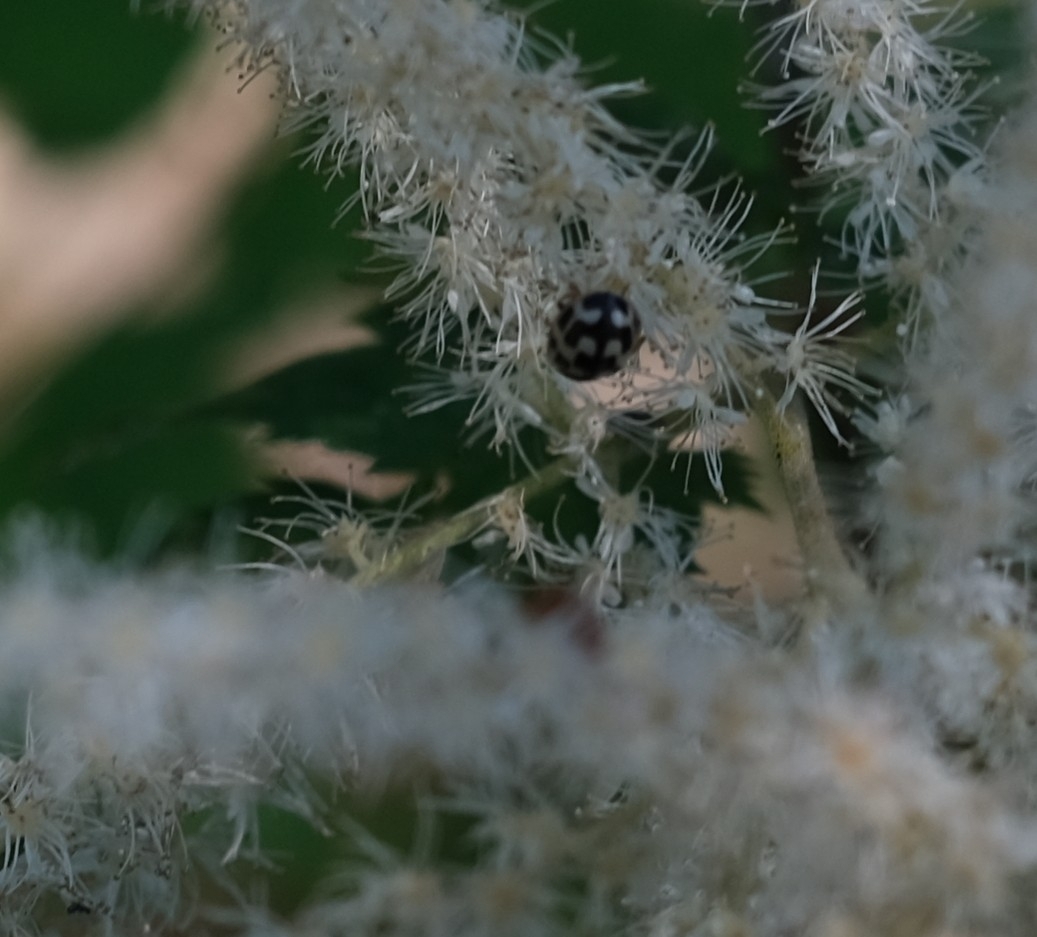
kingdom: Animalia
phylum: Arthropoda
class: Insecta
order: Coleoptera
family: Coccinellidae
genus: Propylaea
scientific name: Propylaea quatuordecimpunctata
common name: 14-spotted ladybird beetle
